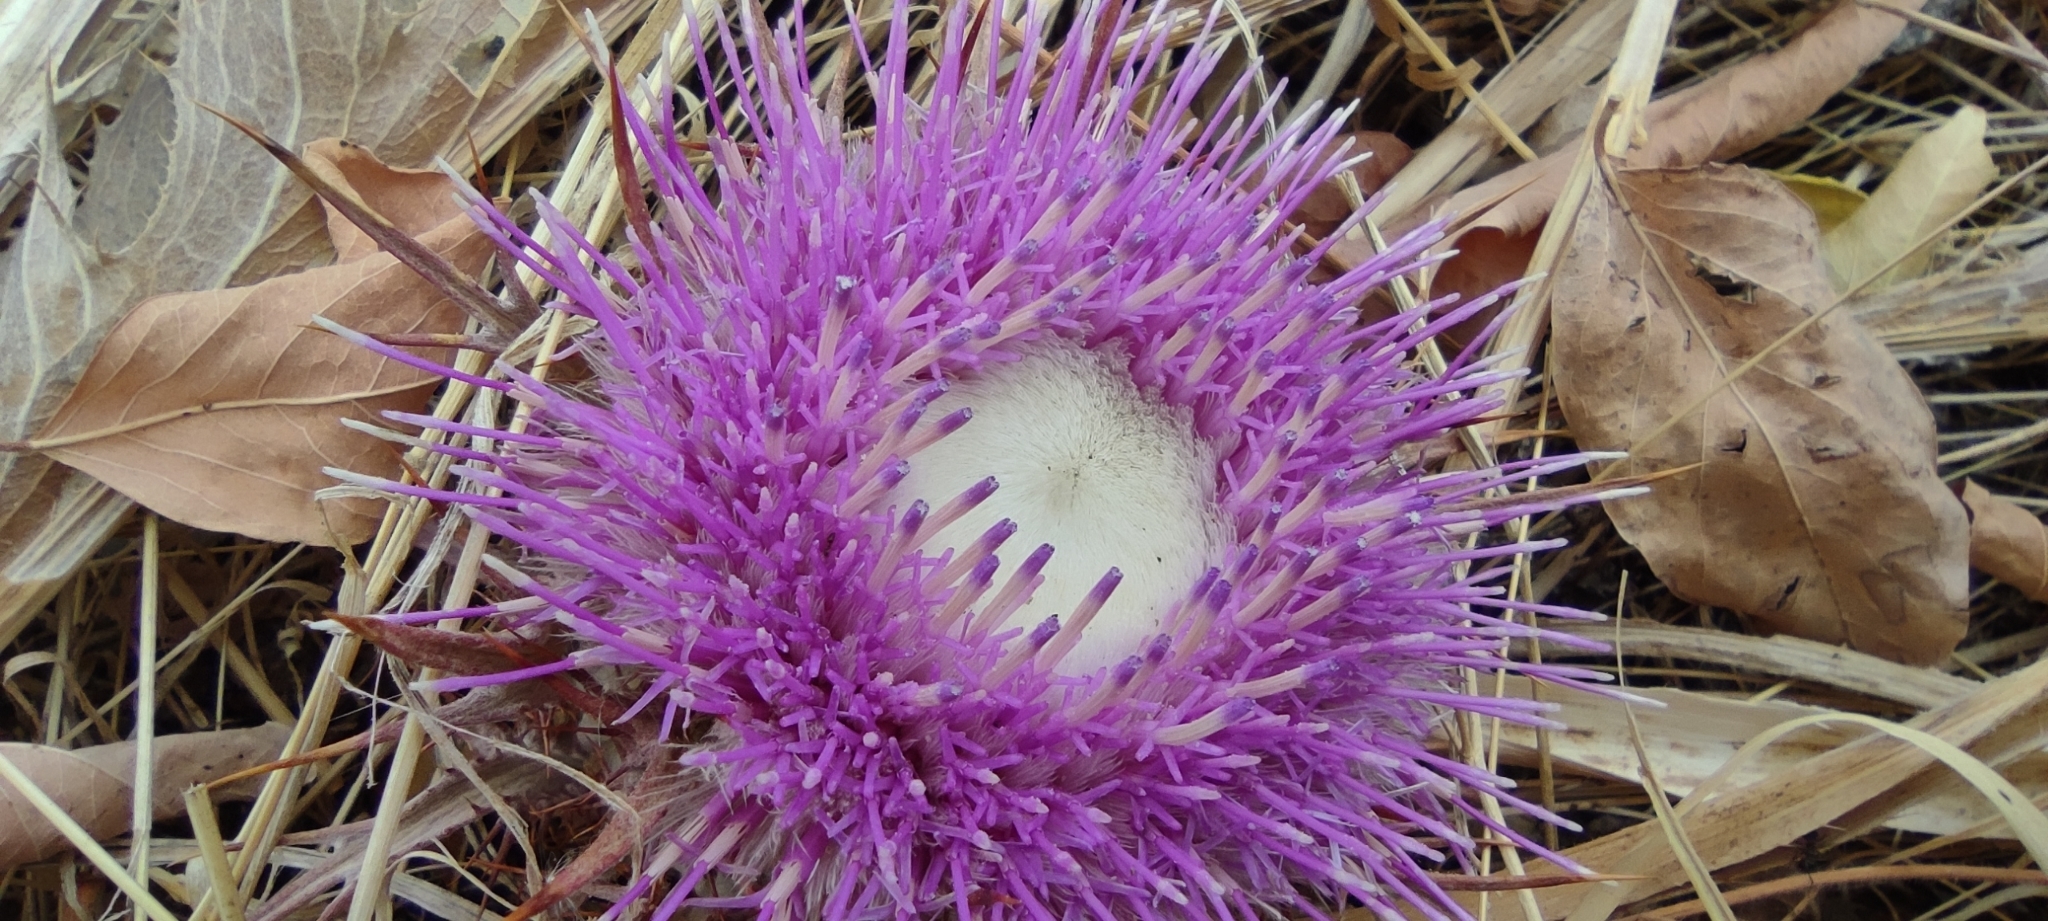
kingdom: Plantae
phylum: Tracheophyta
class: Magnoliopsida
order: Asterales
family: Asteraceae
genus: Chamaeleon
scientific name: Chamaeleon gummifer
